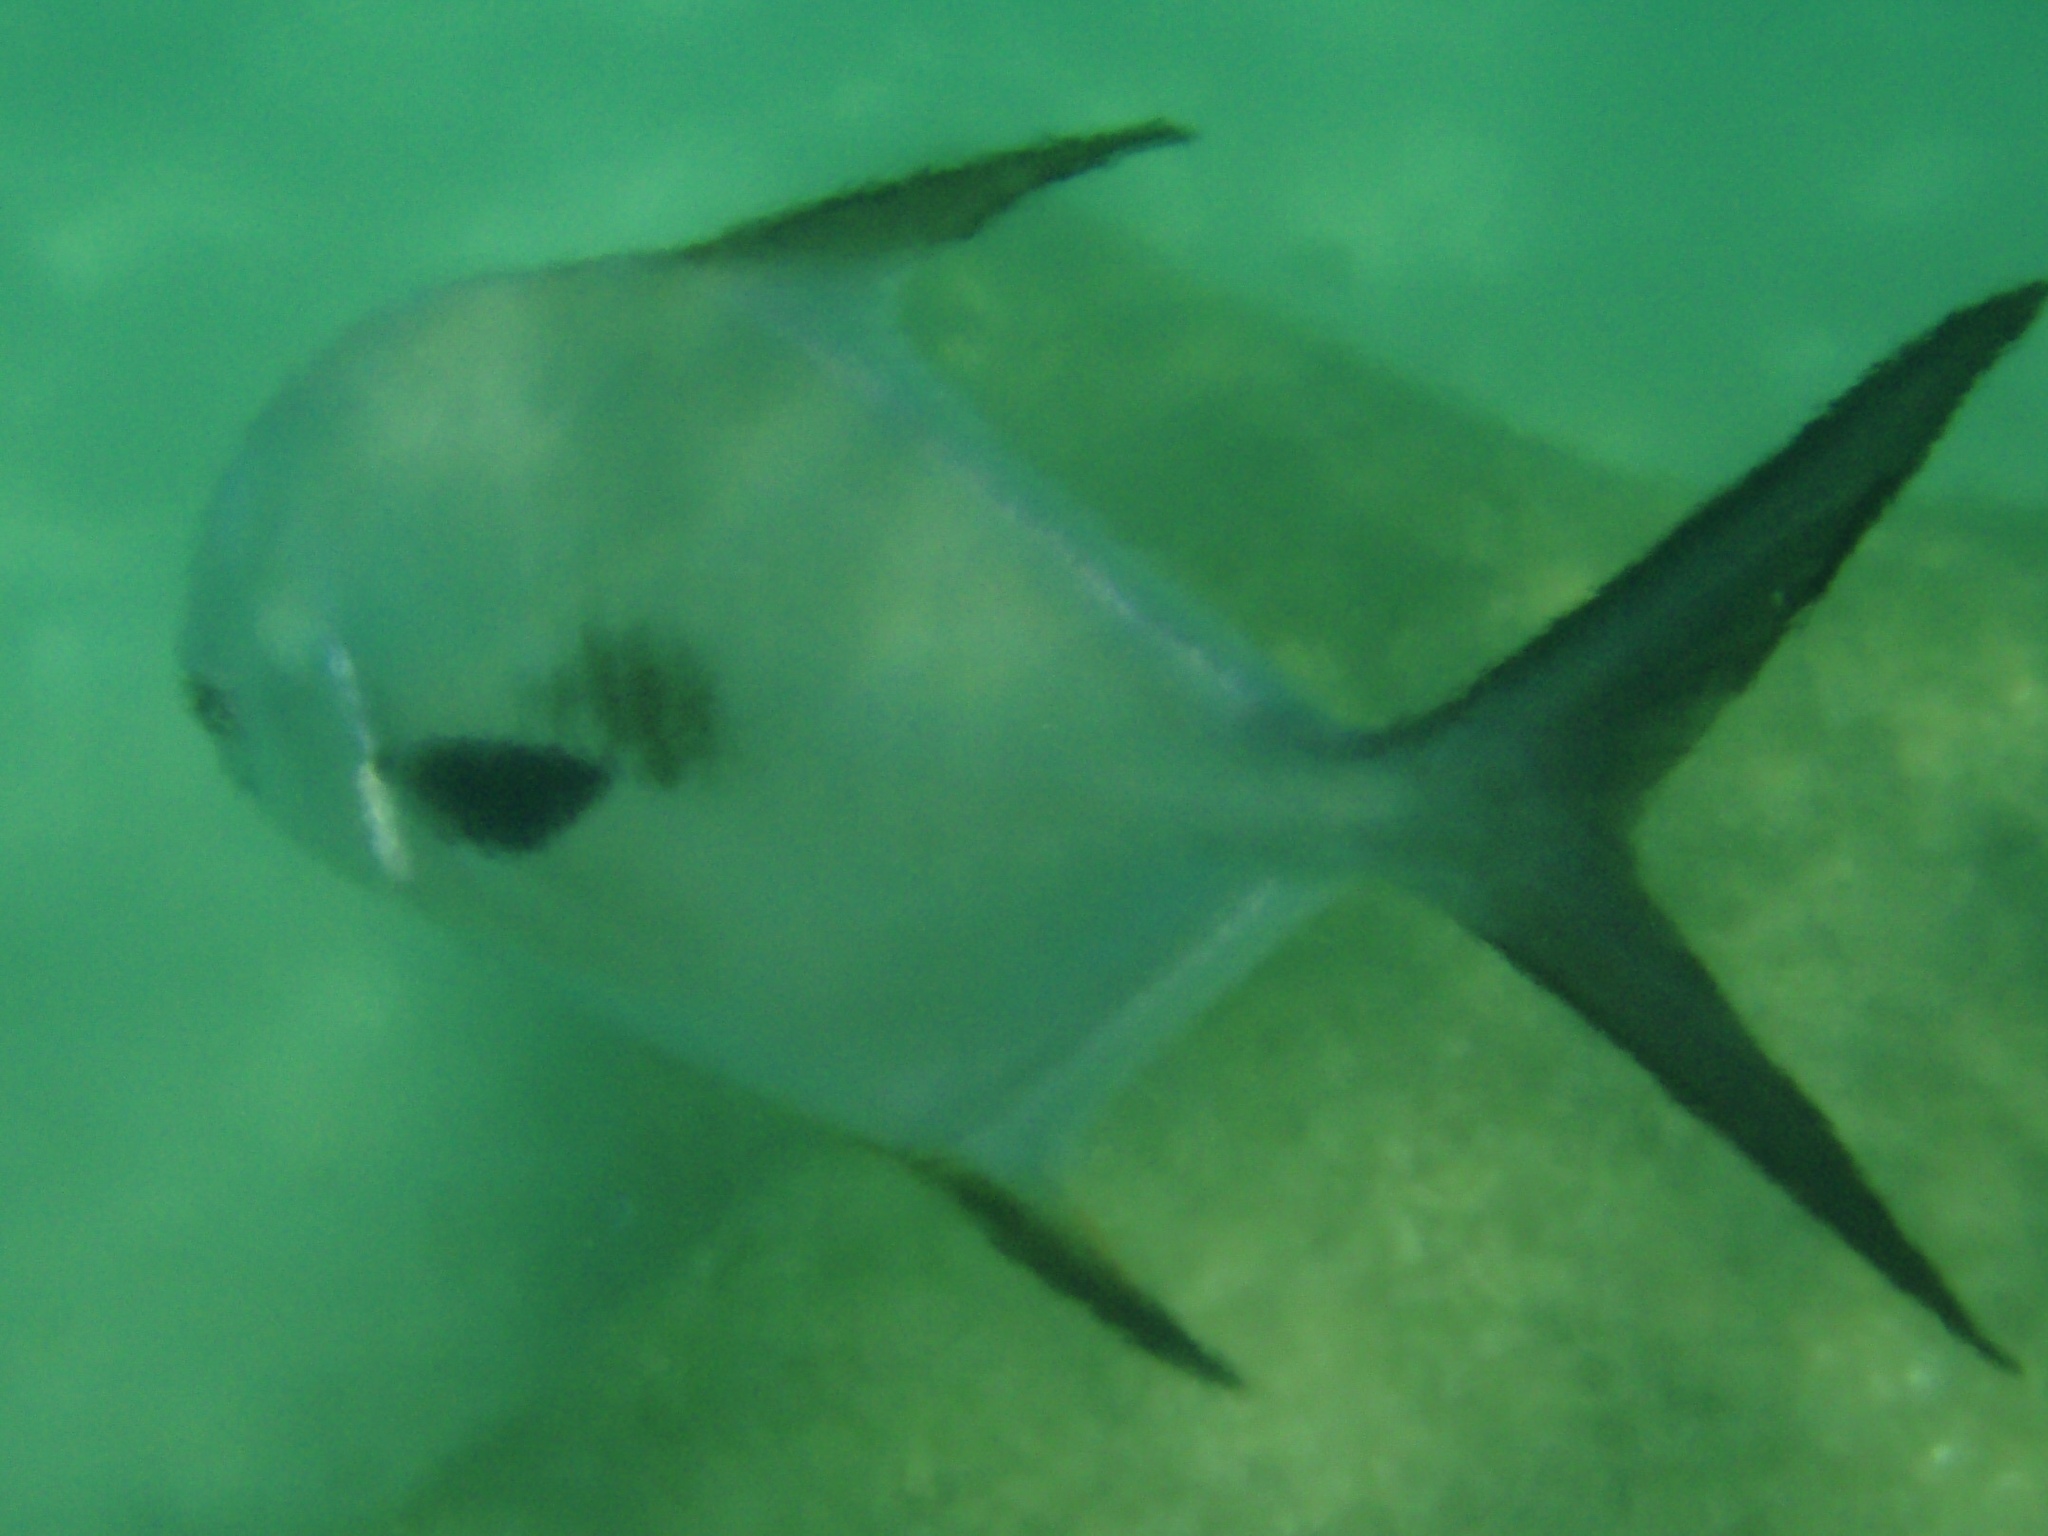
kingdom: Animalia
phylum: Chordata
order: Perciformes
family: Carangidae
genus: Trachinotus
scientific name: Trachinotus falcatus
